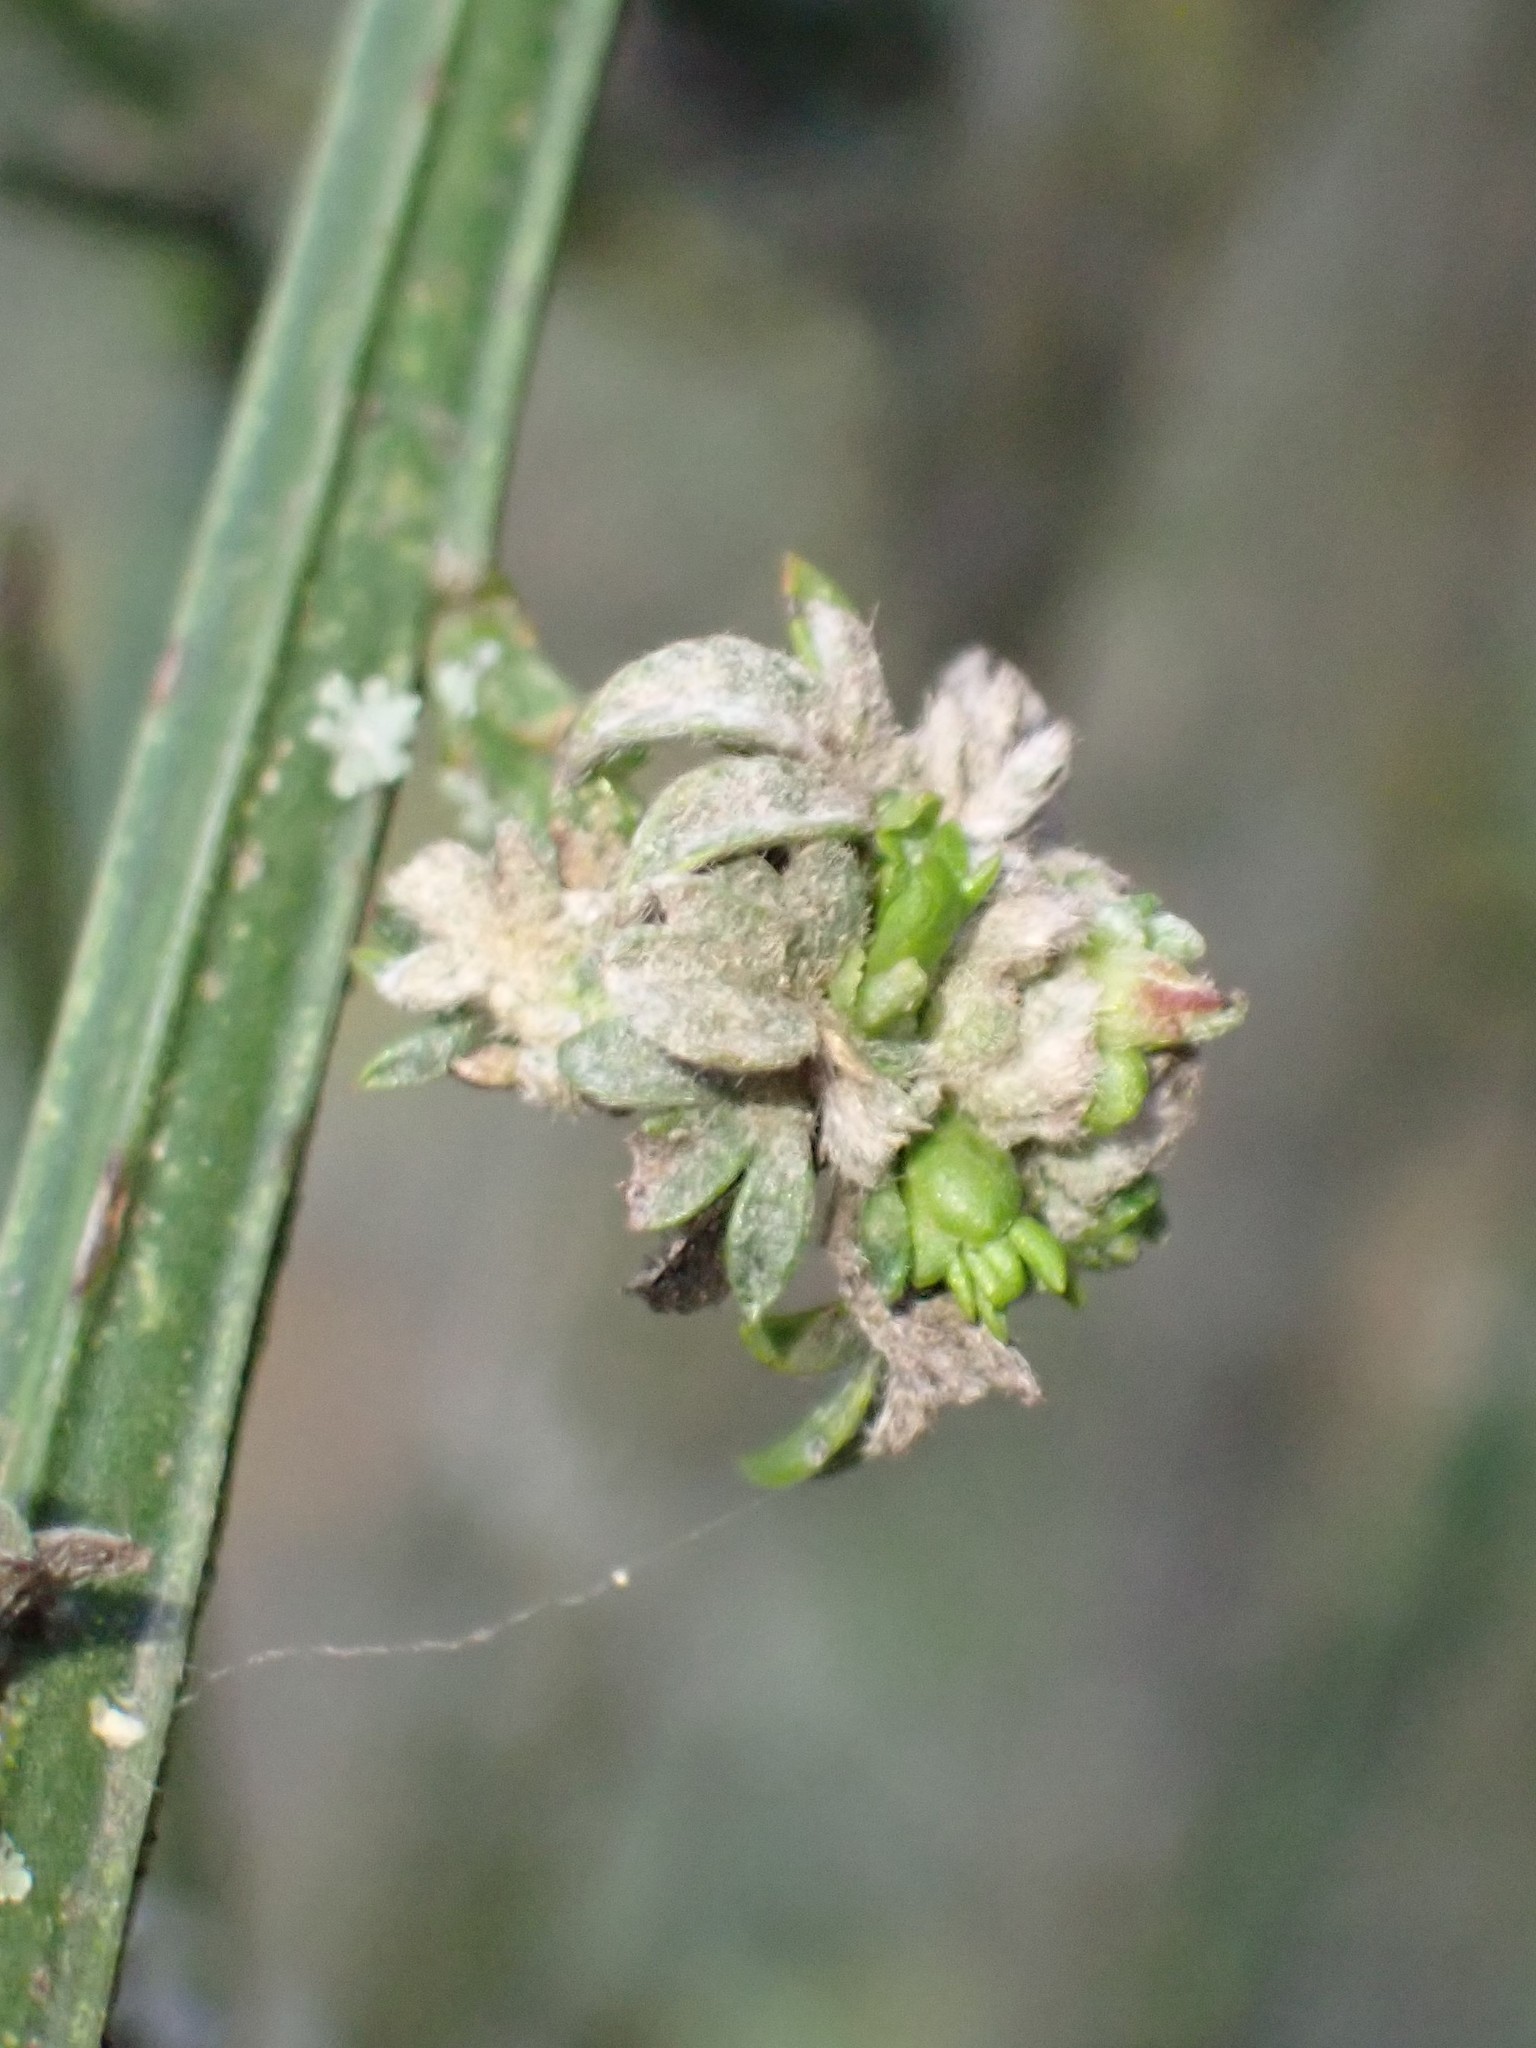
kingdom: Animalia
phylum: Arthropoda
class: Arachnida
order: Trombidiformes
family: Eriophyidae
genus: Aceria
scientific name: Aceria genistae
